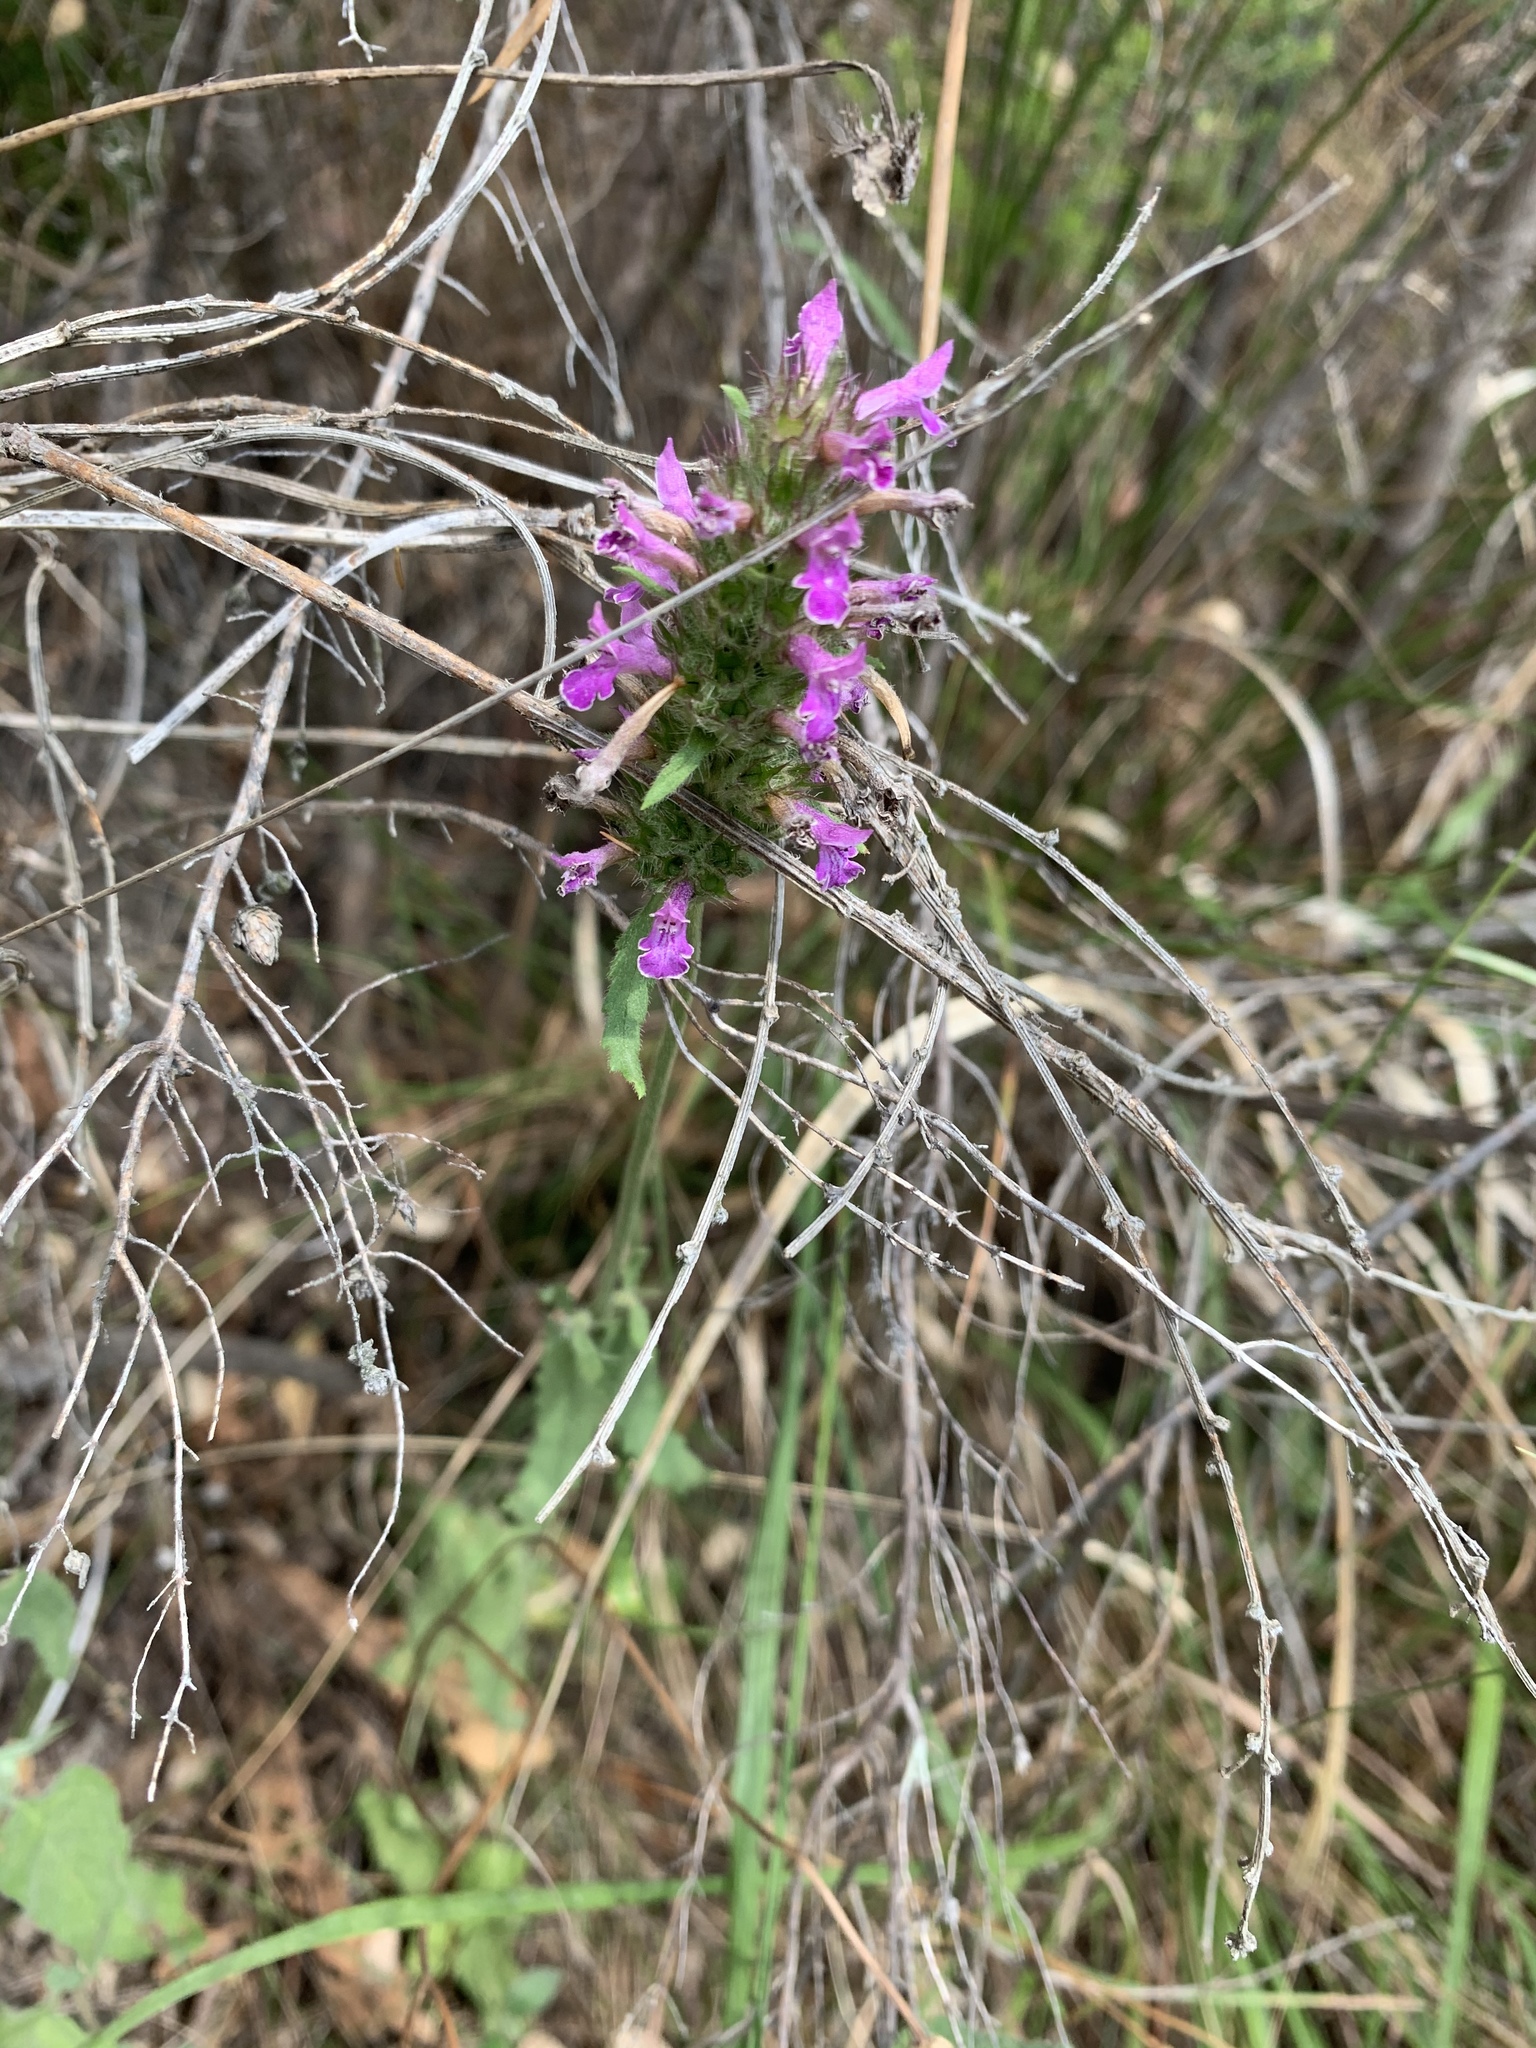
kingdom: Plantae
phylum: Tracheophyta
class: Magnoliopsida
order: Lamiales
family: Lamiaceae
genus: Betonica
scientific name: Betonica officinalis
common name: Bishop's-wort
